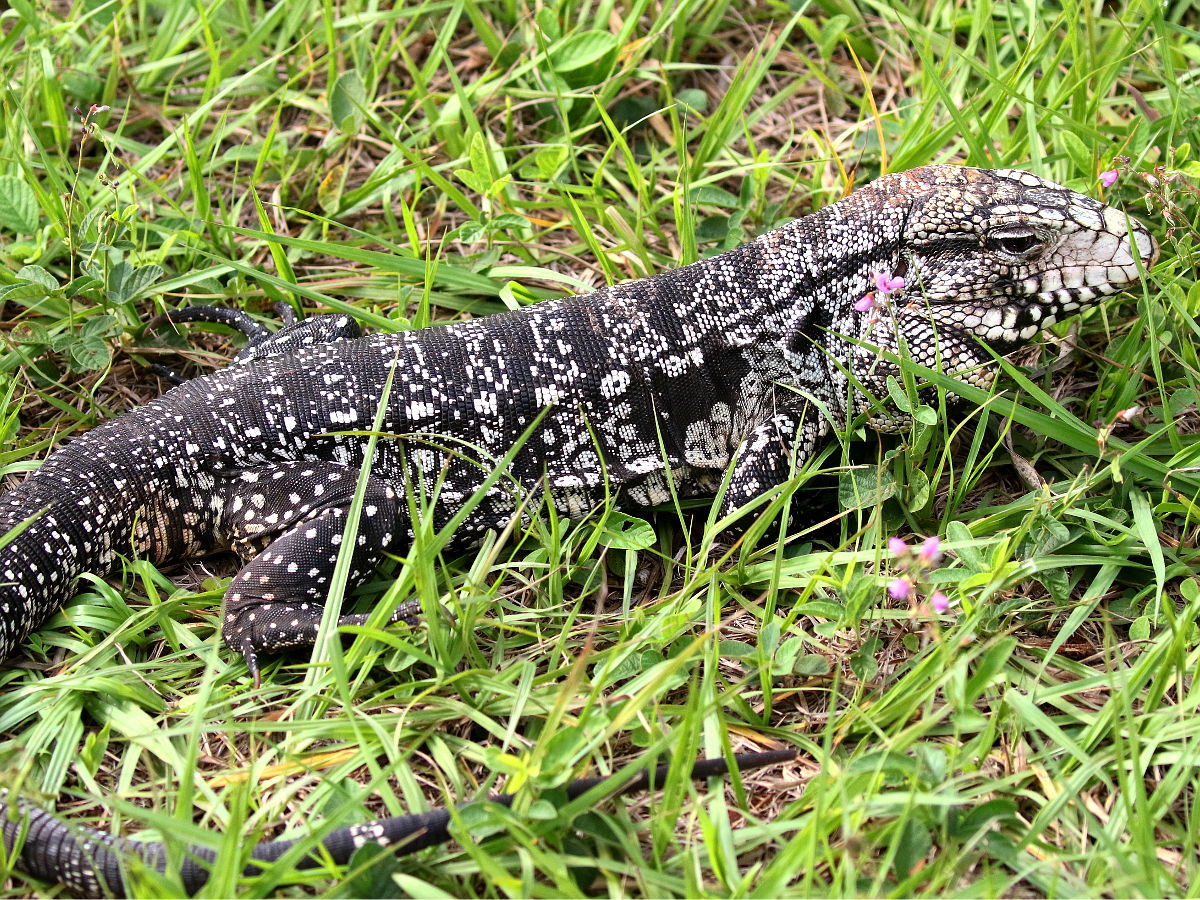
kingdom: Animalia
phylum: Chordata
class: Squamata
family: Teiidae
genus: Salvator
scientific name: Salvator merianae
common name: Argentine black and white tegu
